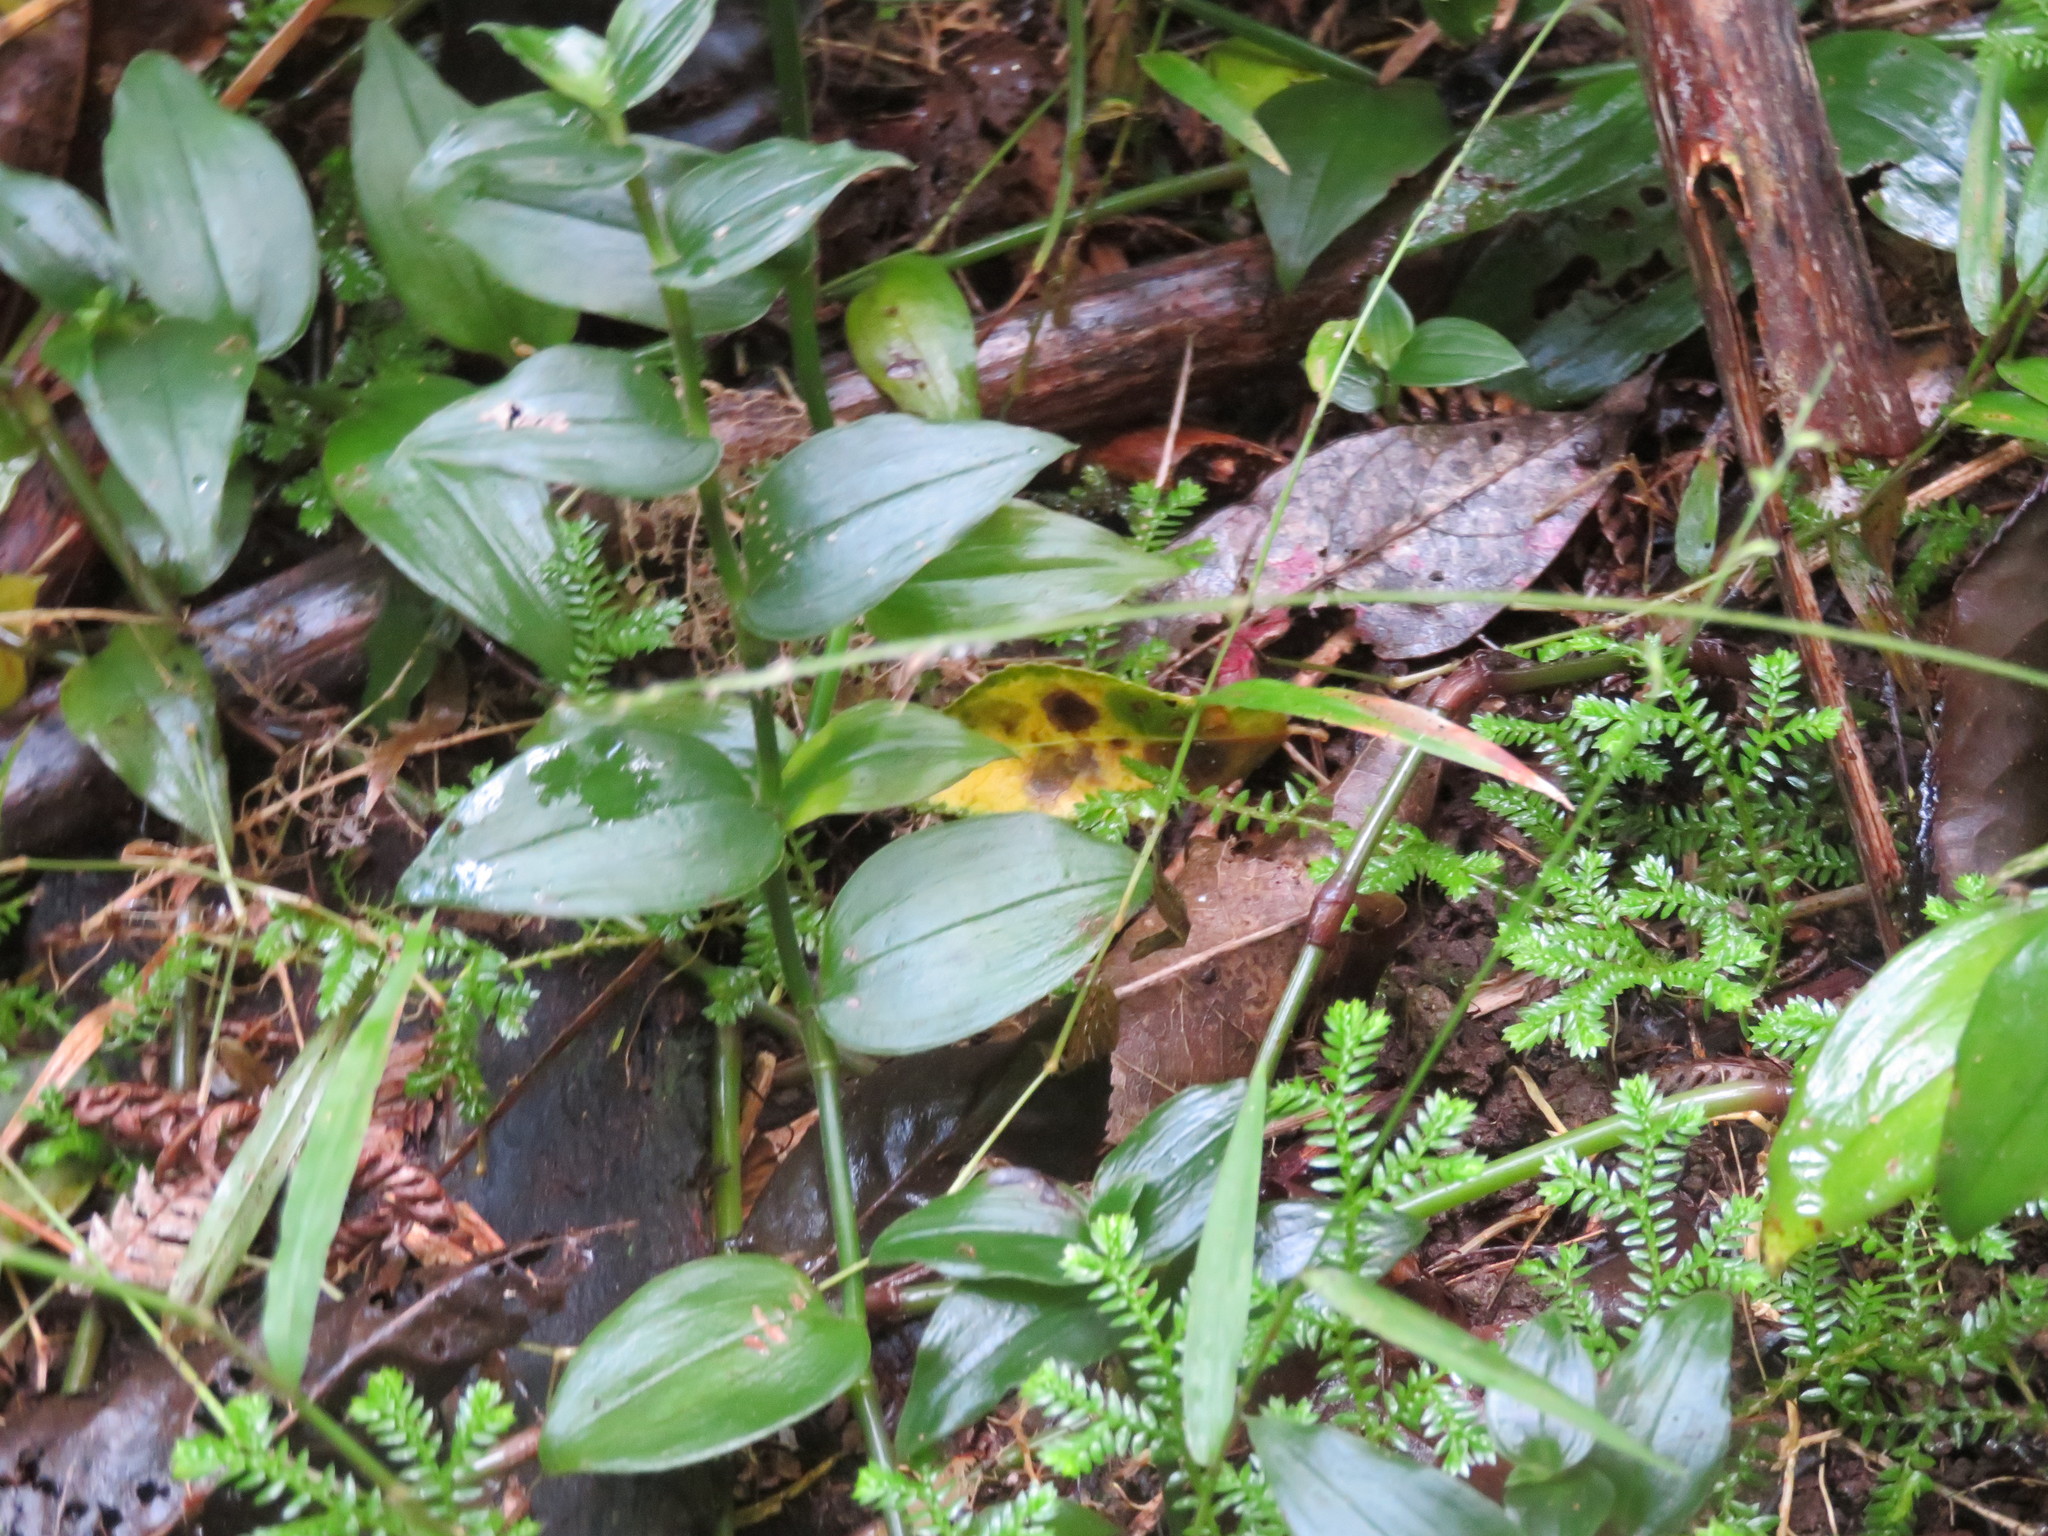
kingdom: Plantae
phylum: Tracheophyta
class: Lycopodiopsida
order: Selaginellales
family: Selaginellaceae
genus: Selaginella
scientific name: Selaginella kraussiana
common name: Krauss' spikemoss
